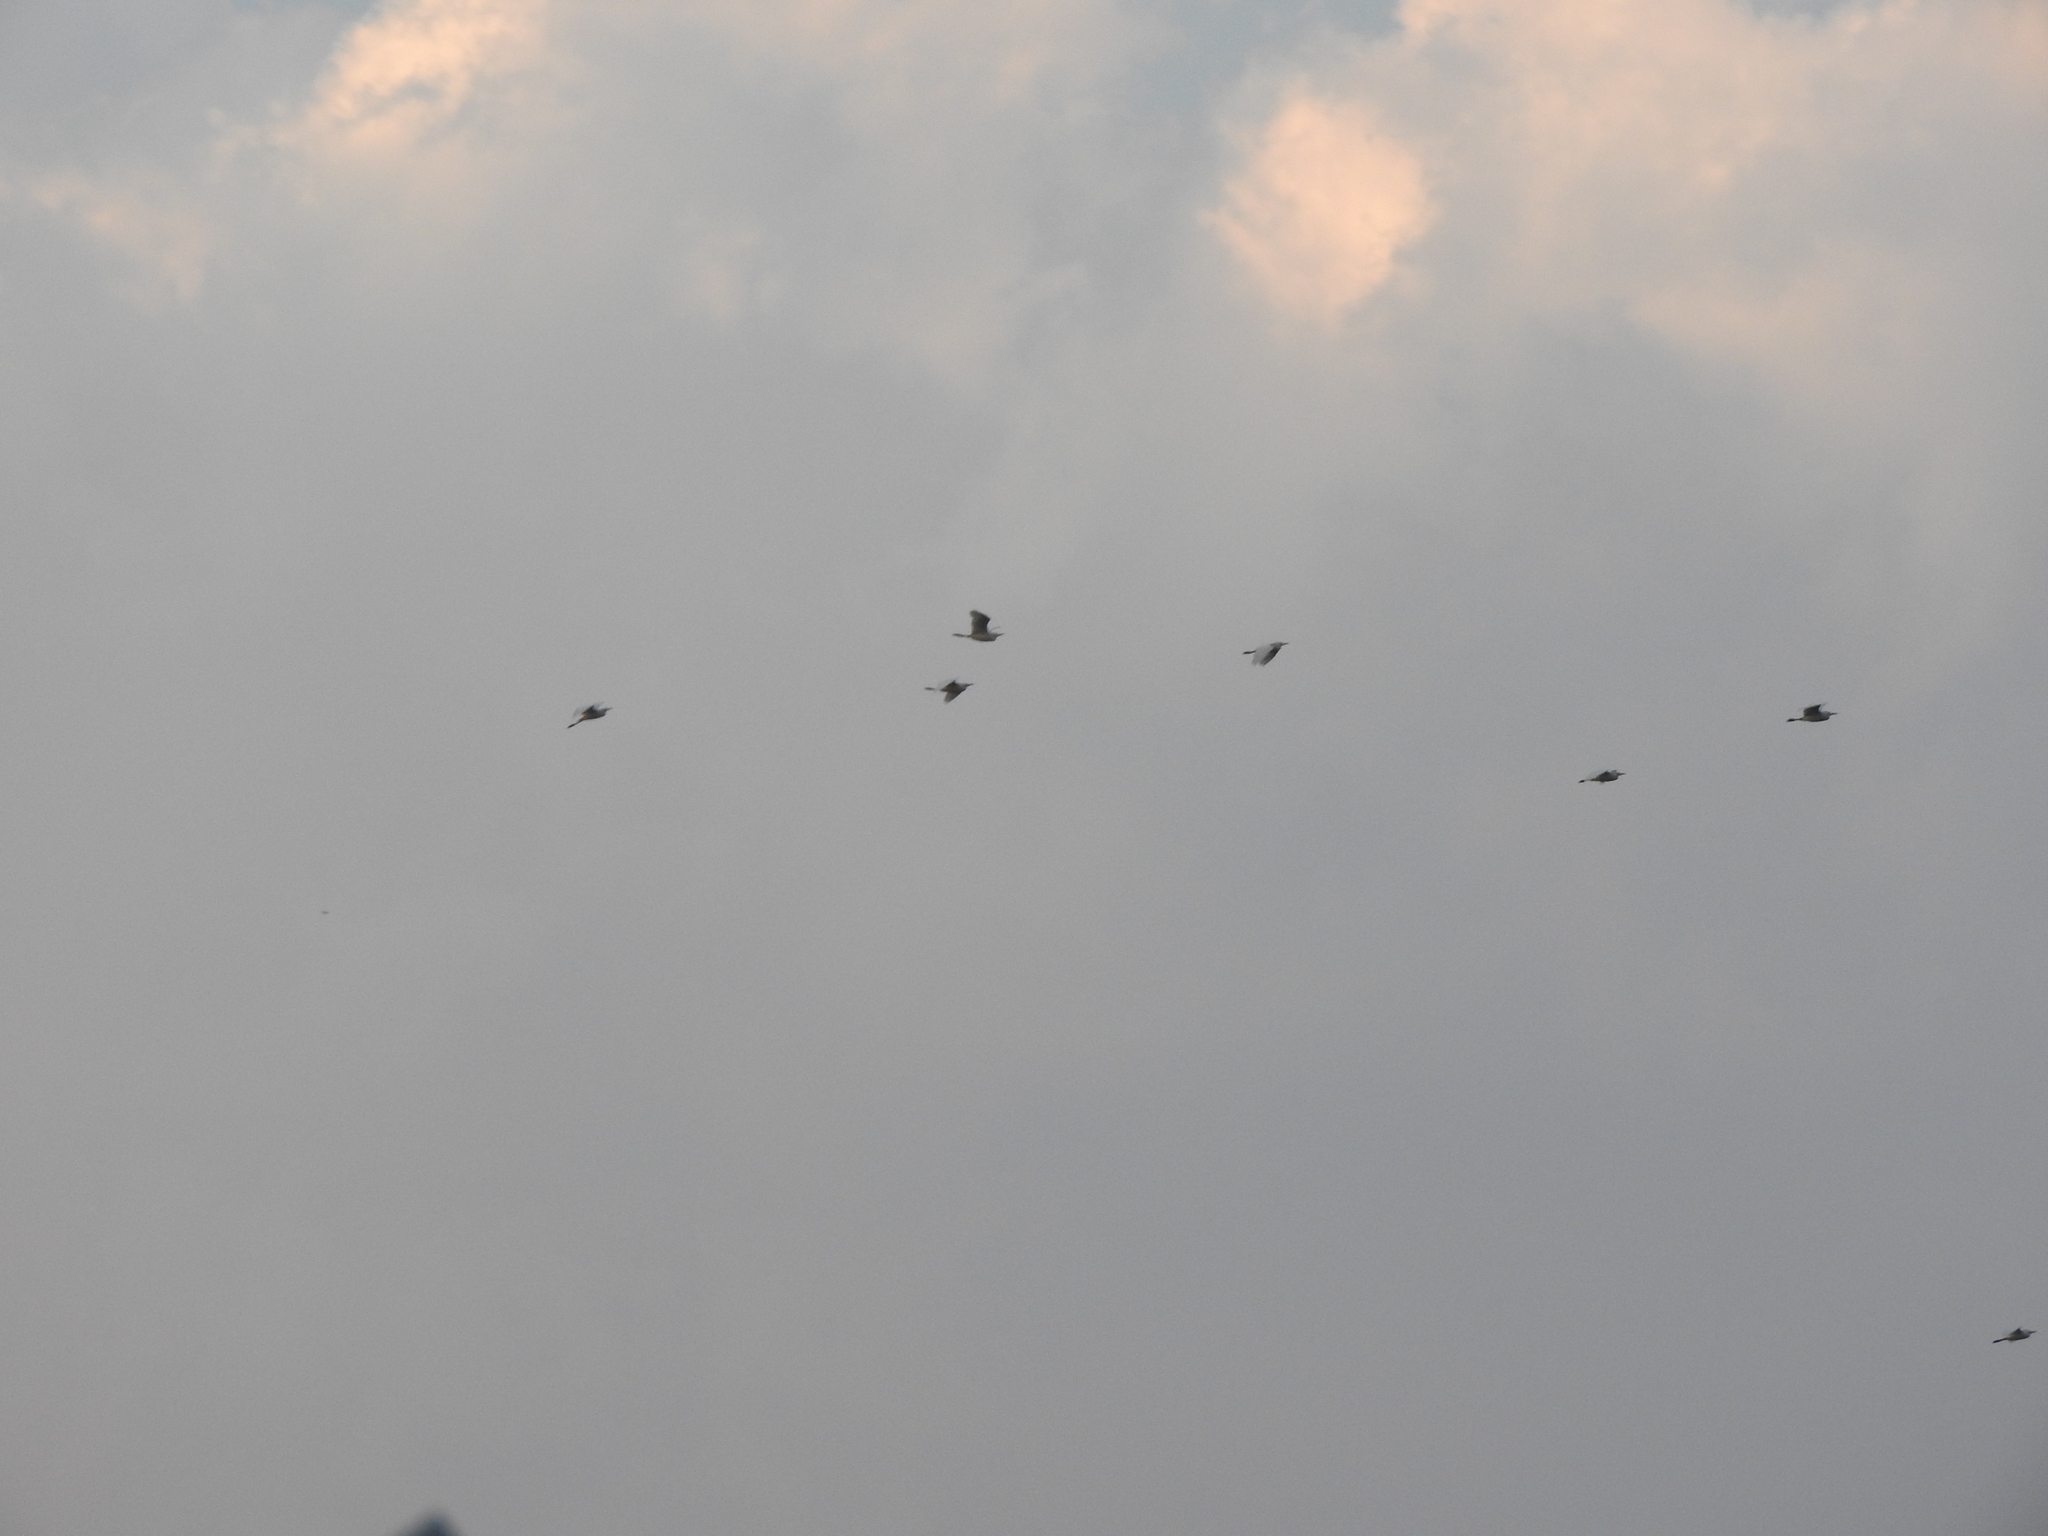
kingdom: Animalia
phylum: Chordata
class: Aves
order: Pelecaniformes
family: Ardeidae
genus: Bubulcus
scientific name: Bubulcus ibis
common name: Cattle egret
